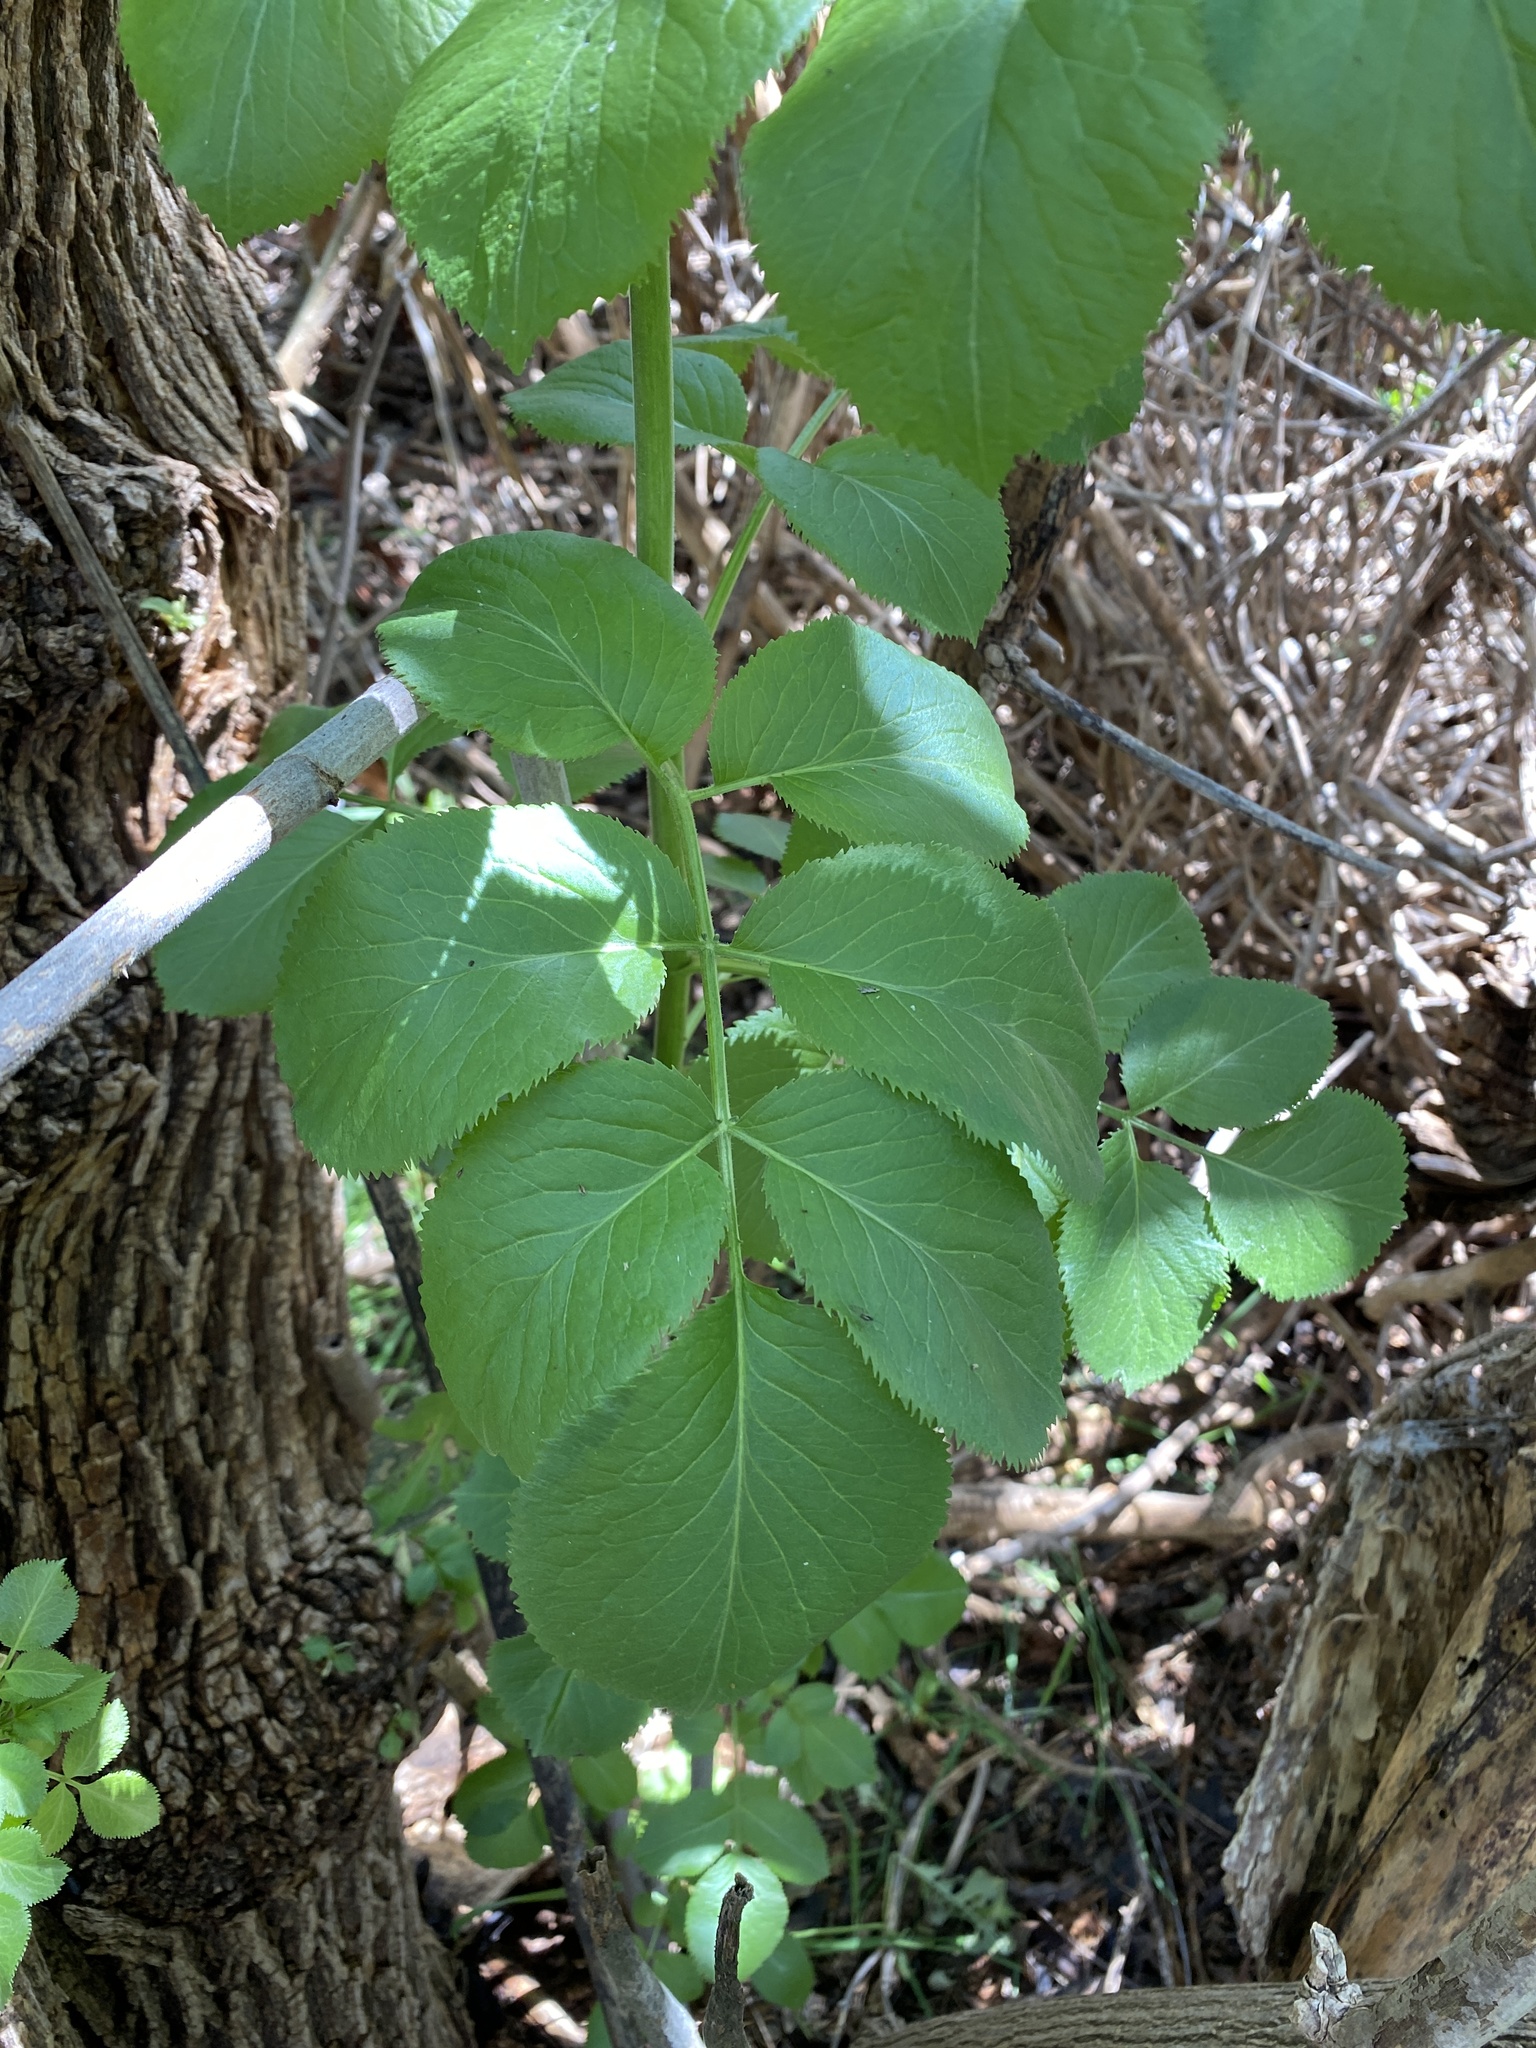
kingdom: Plantae
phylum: Tracheophyta
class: Magnoliopsida
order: Dipsacales
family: Viburnaceae
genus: Sambucus
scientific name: Sambucus cerulea
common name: Blue elder
